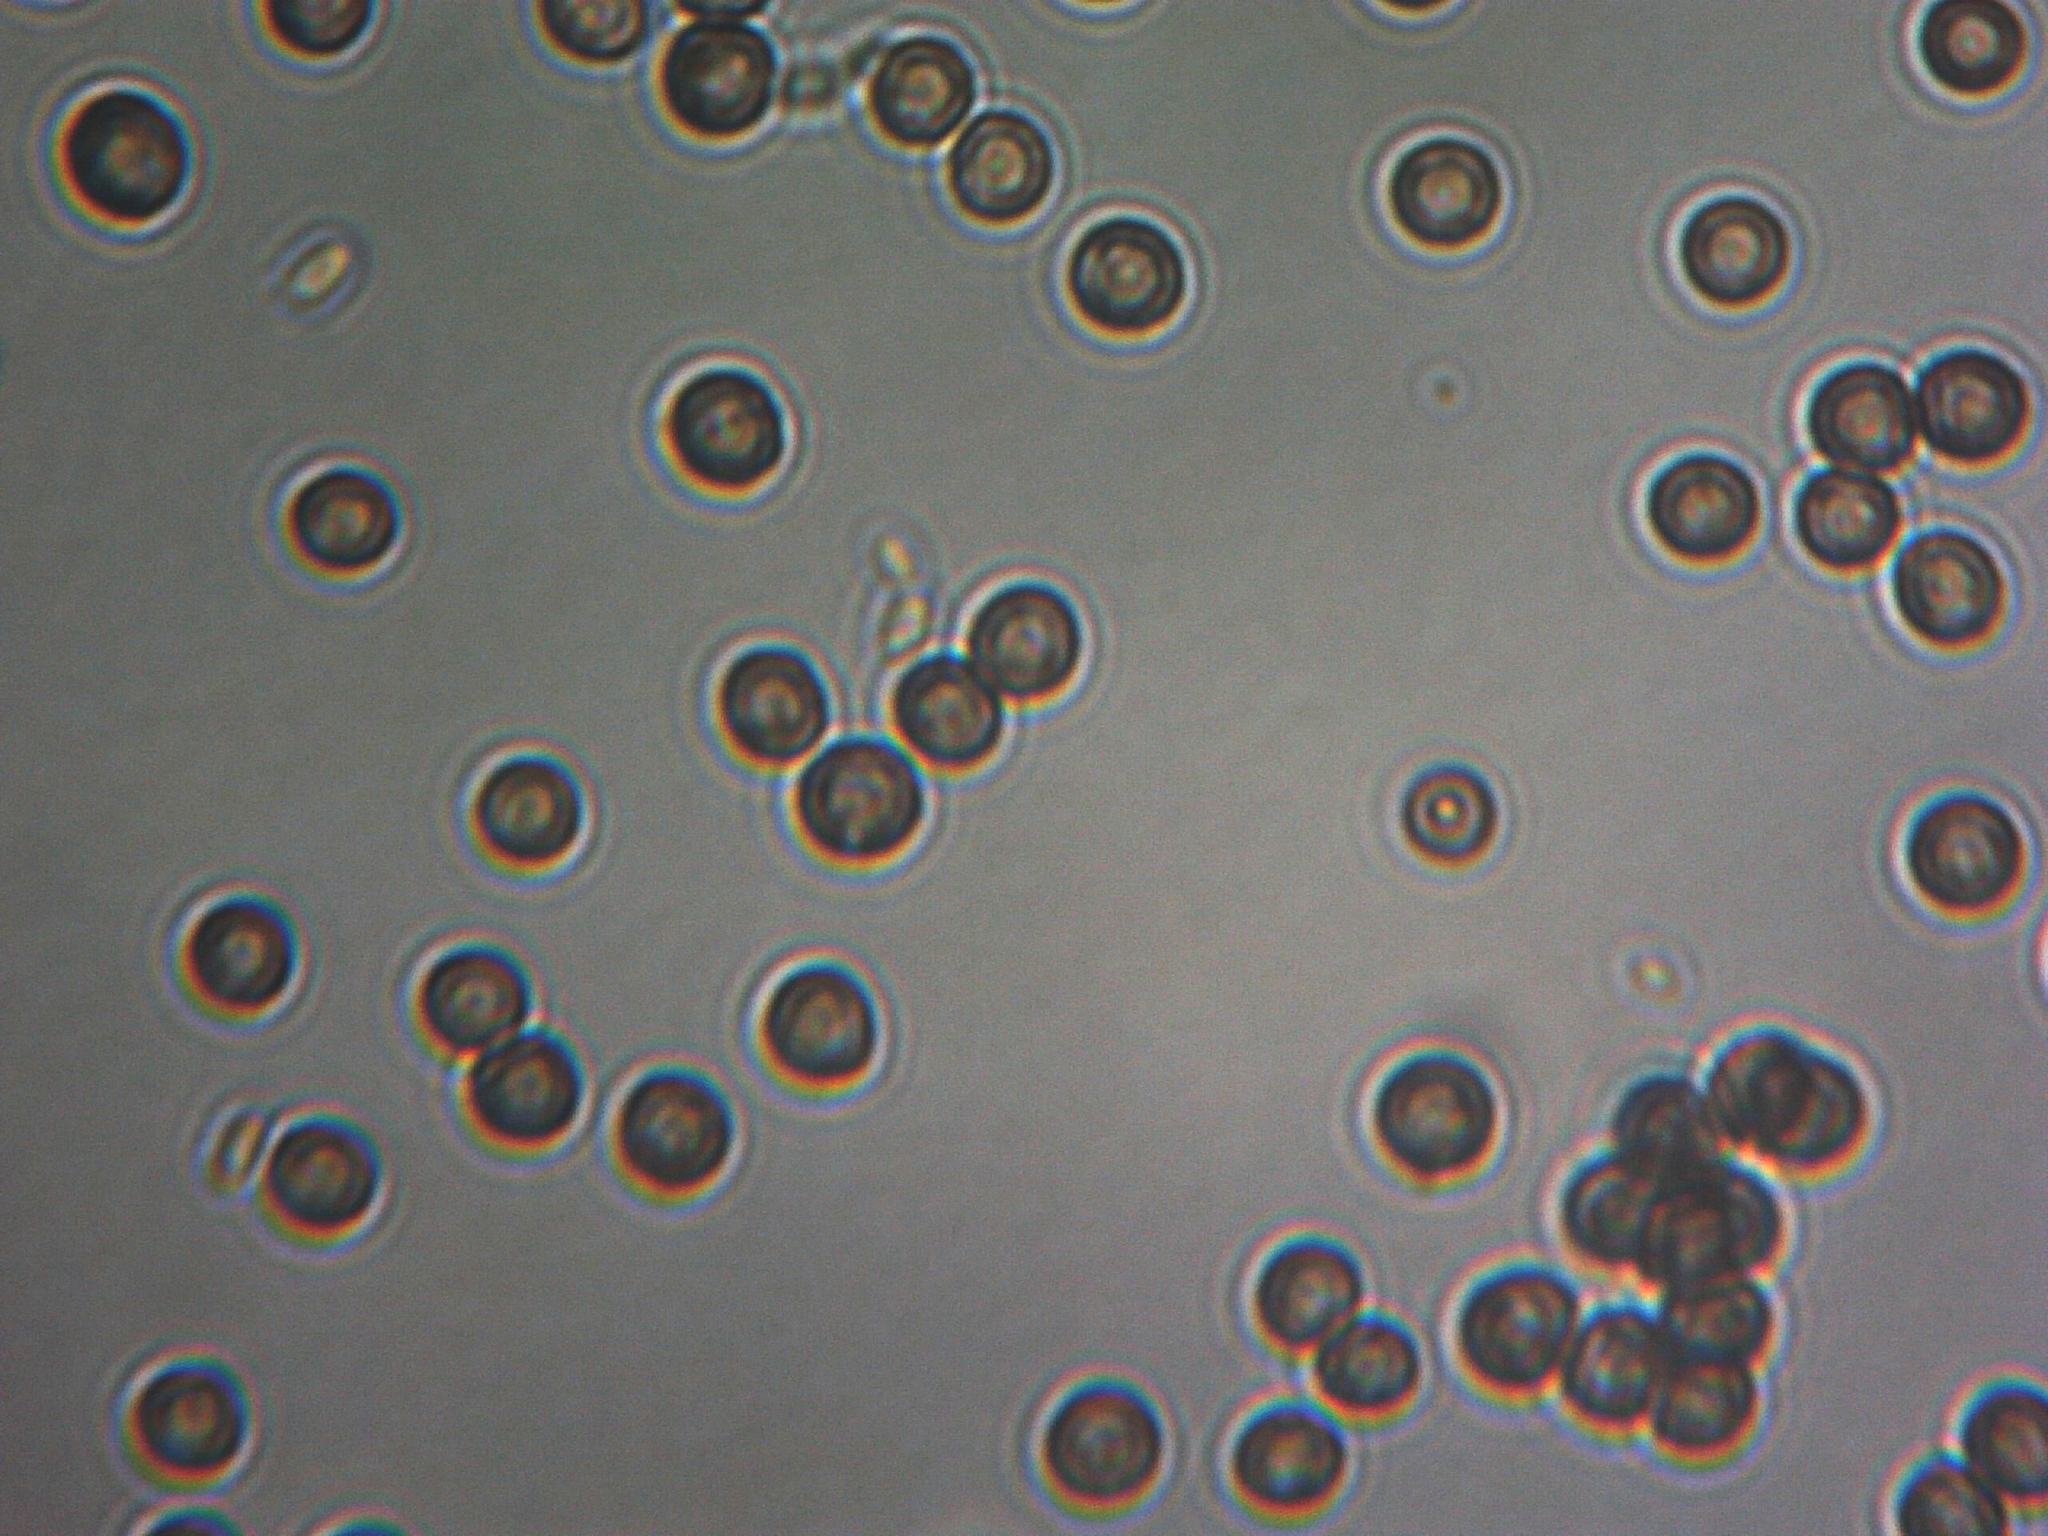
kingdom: Fungi
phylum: Basidiomycota
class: Microbotryomycetes
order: Microbotryales
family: Microbotryaceae
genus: Microbotryum
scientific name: Microbotryum violaceoverrucosum
